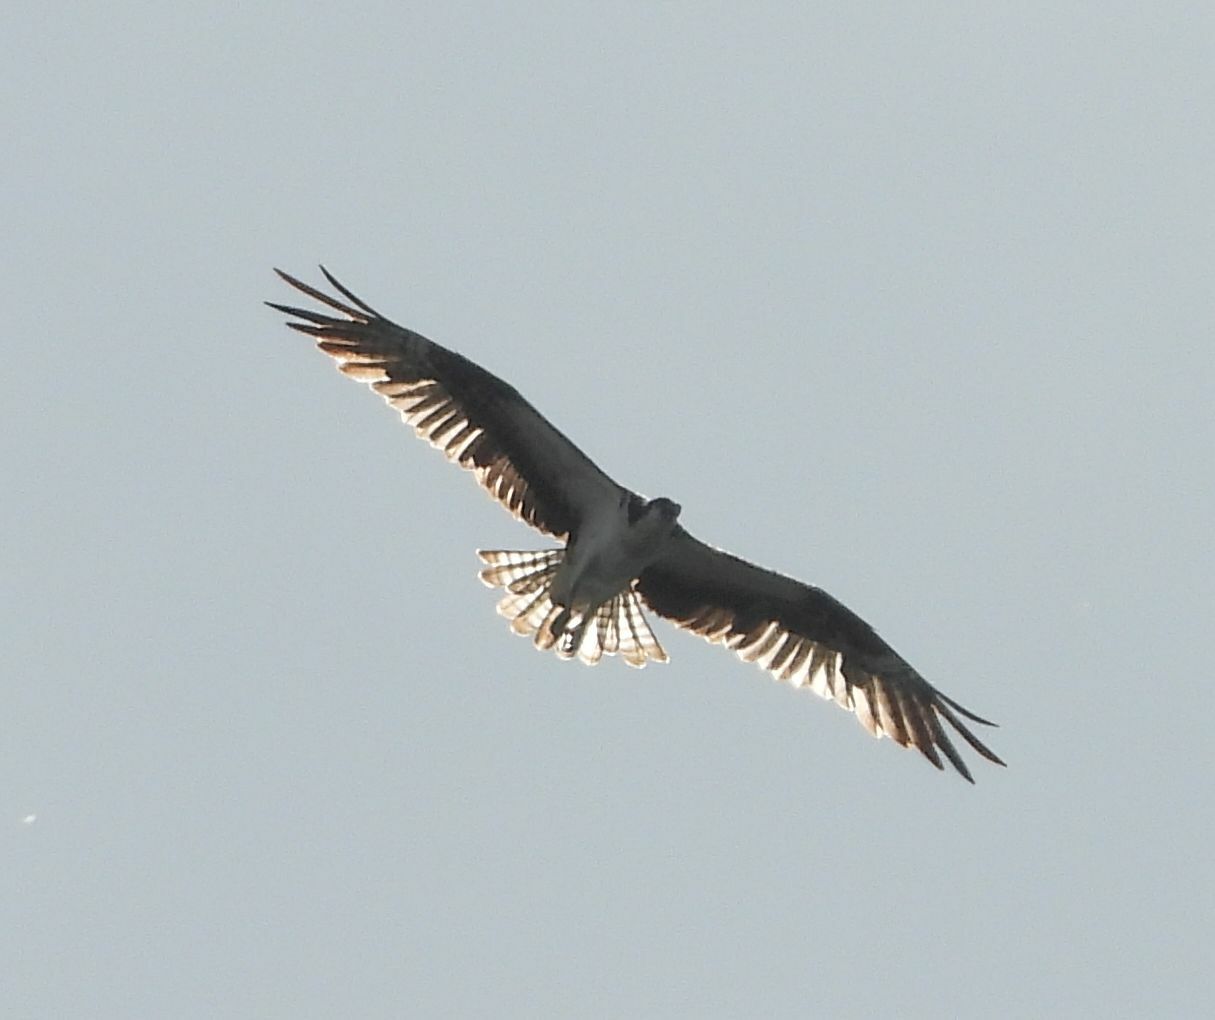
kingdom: Animalia
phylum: Chordata
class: Aves
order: Accipitriformes
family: Pandionidae
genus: Pandion
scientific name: Pandion haliaetus
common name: Osprey
